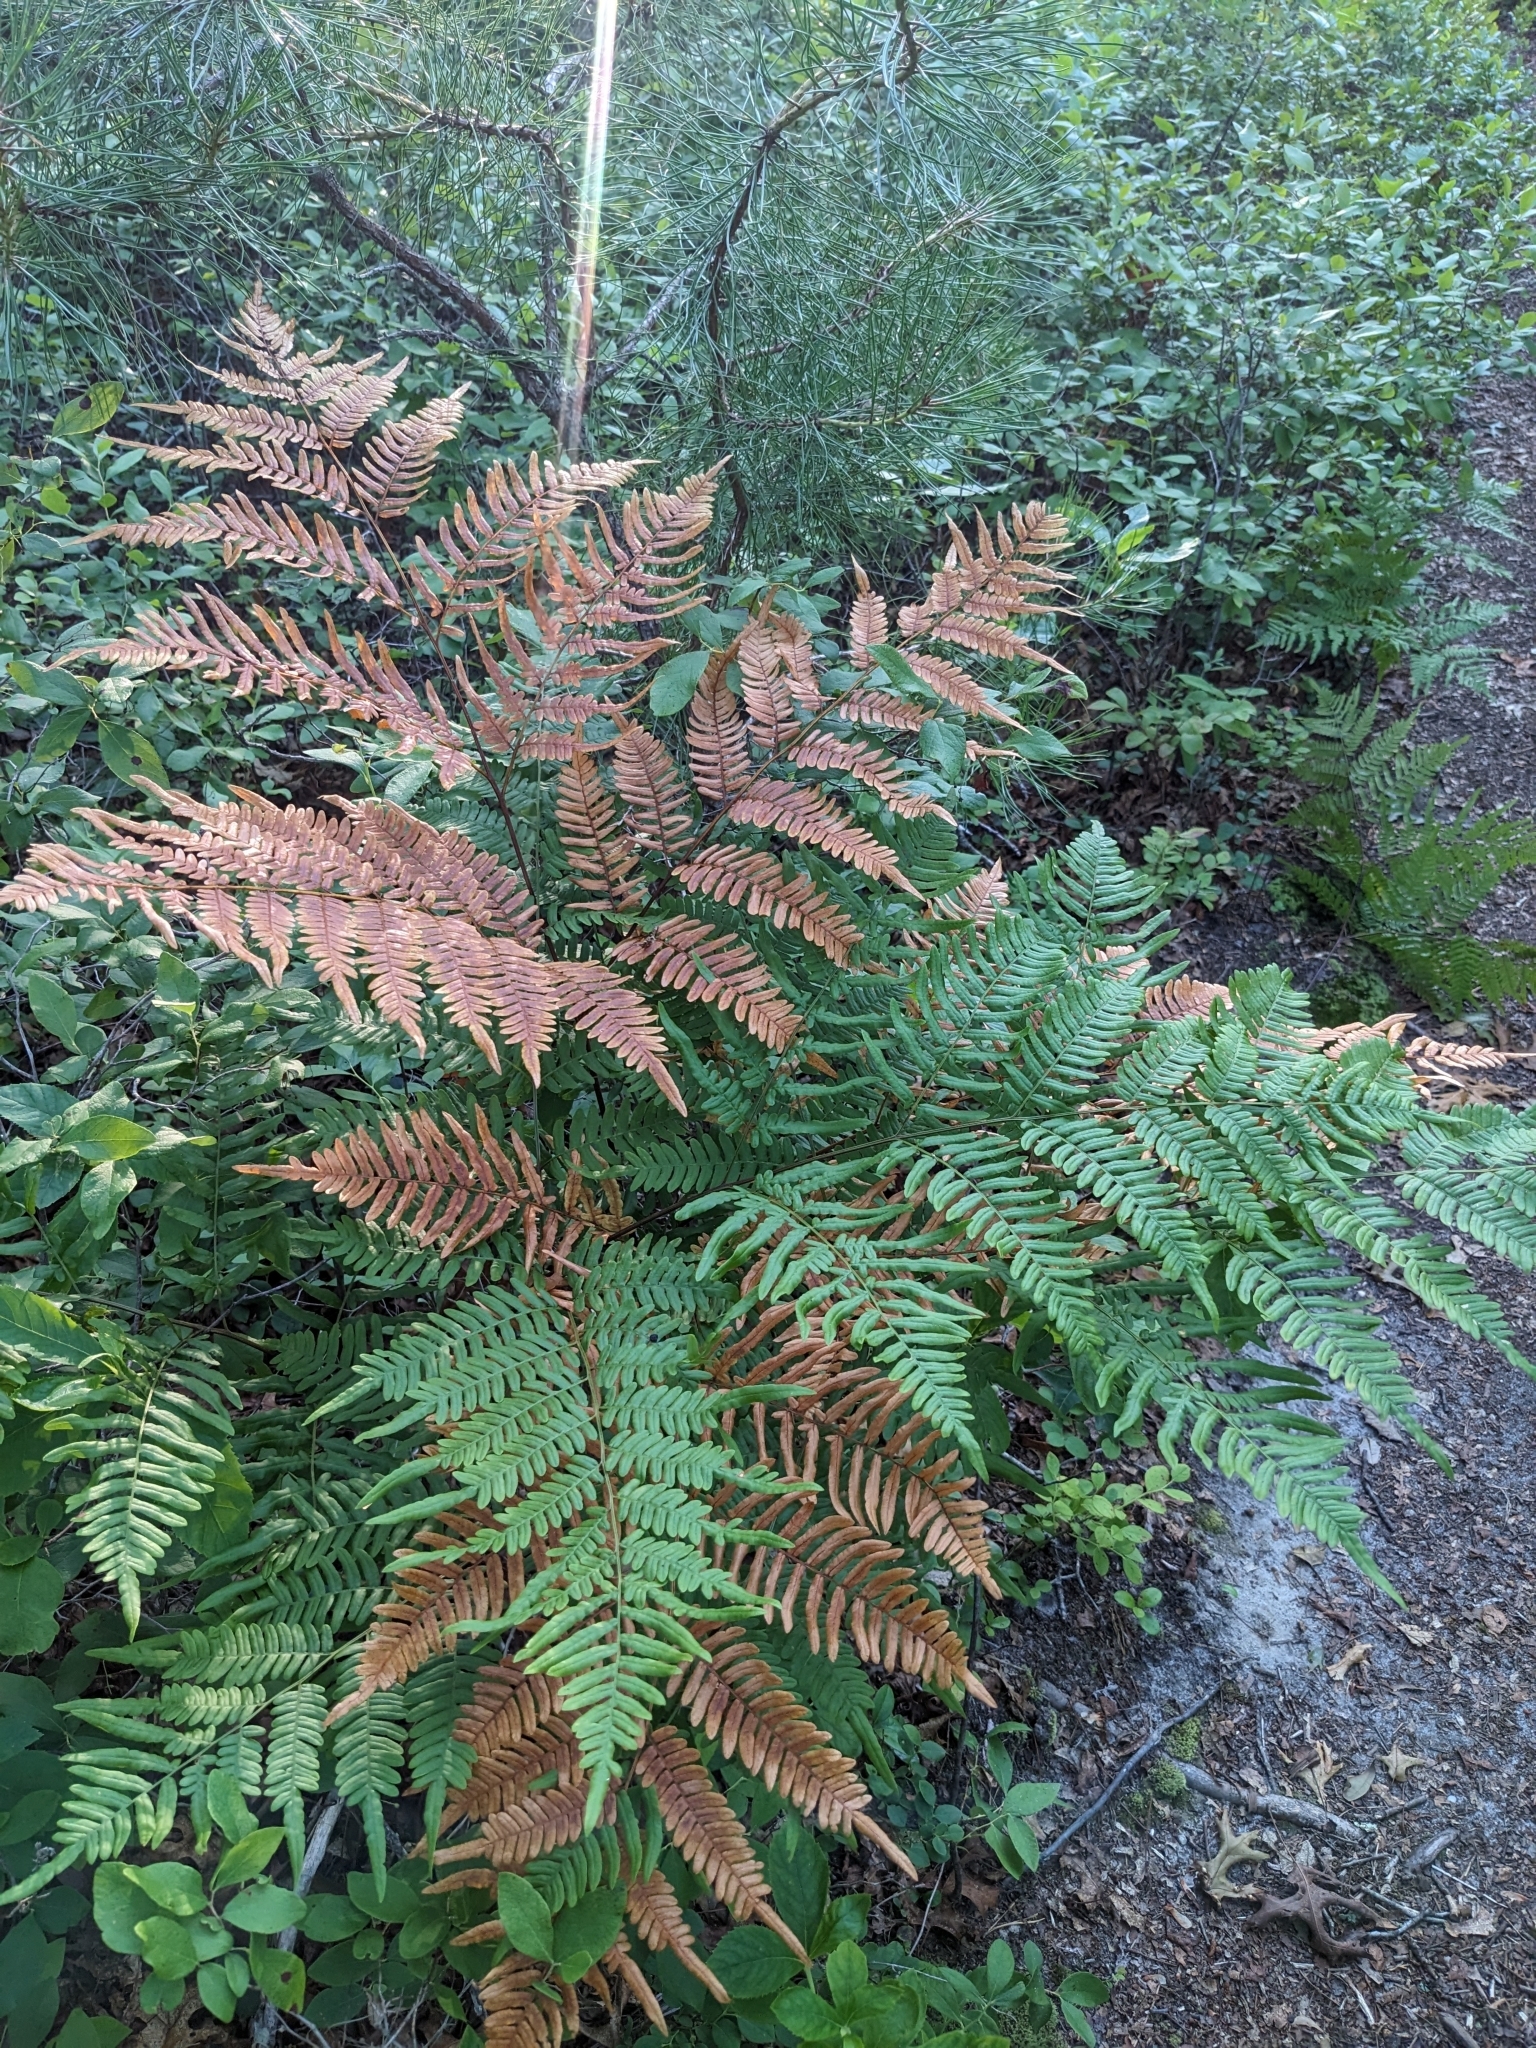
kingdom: Plantae
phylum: Tracheophyta
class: Polypodiopsida
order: Polypodiales
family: Dennstaedtiaceae
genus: Pteridium
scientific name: Pteridium aquilinum
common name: Bracken
